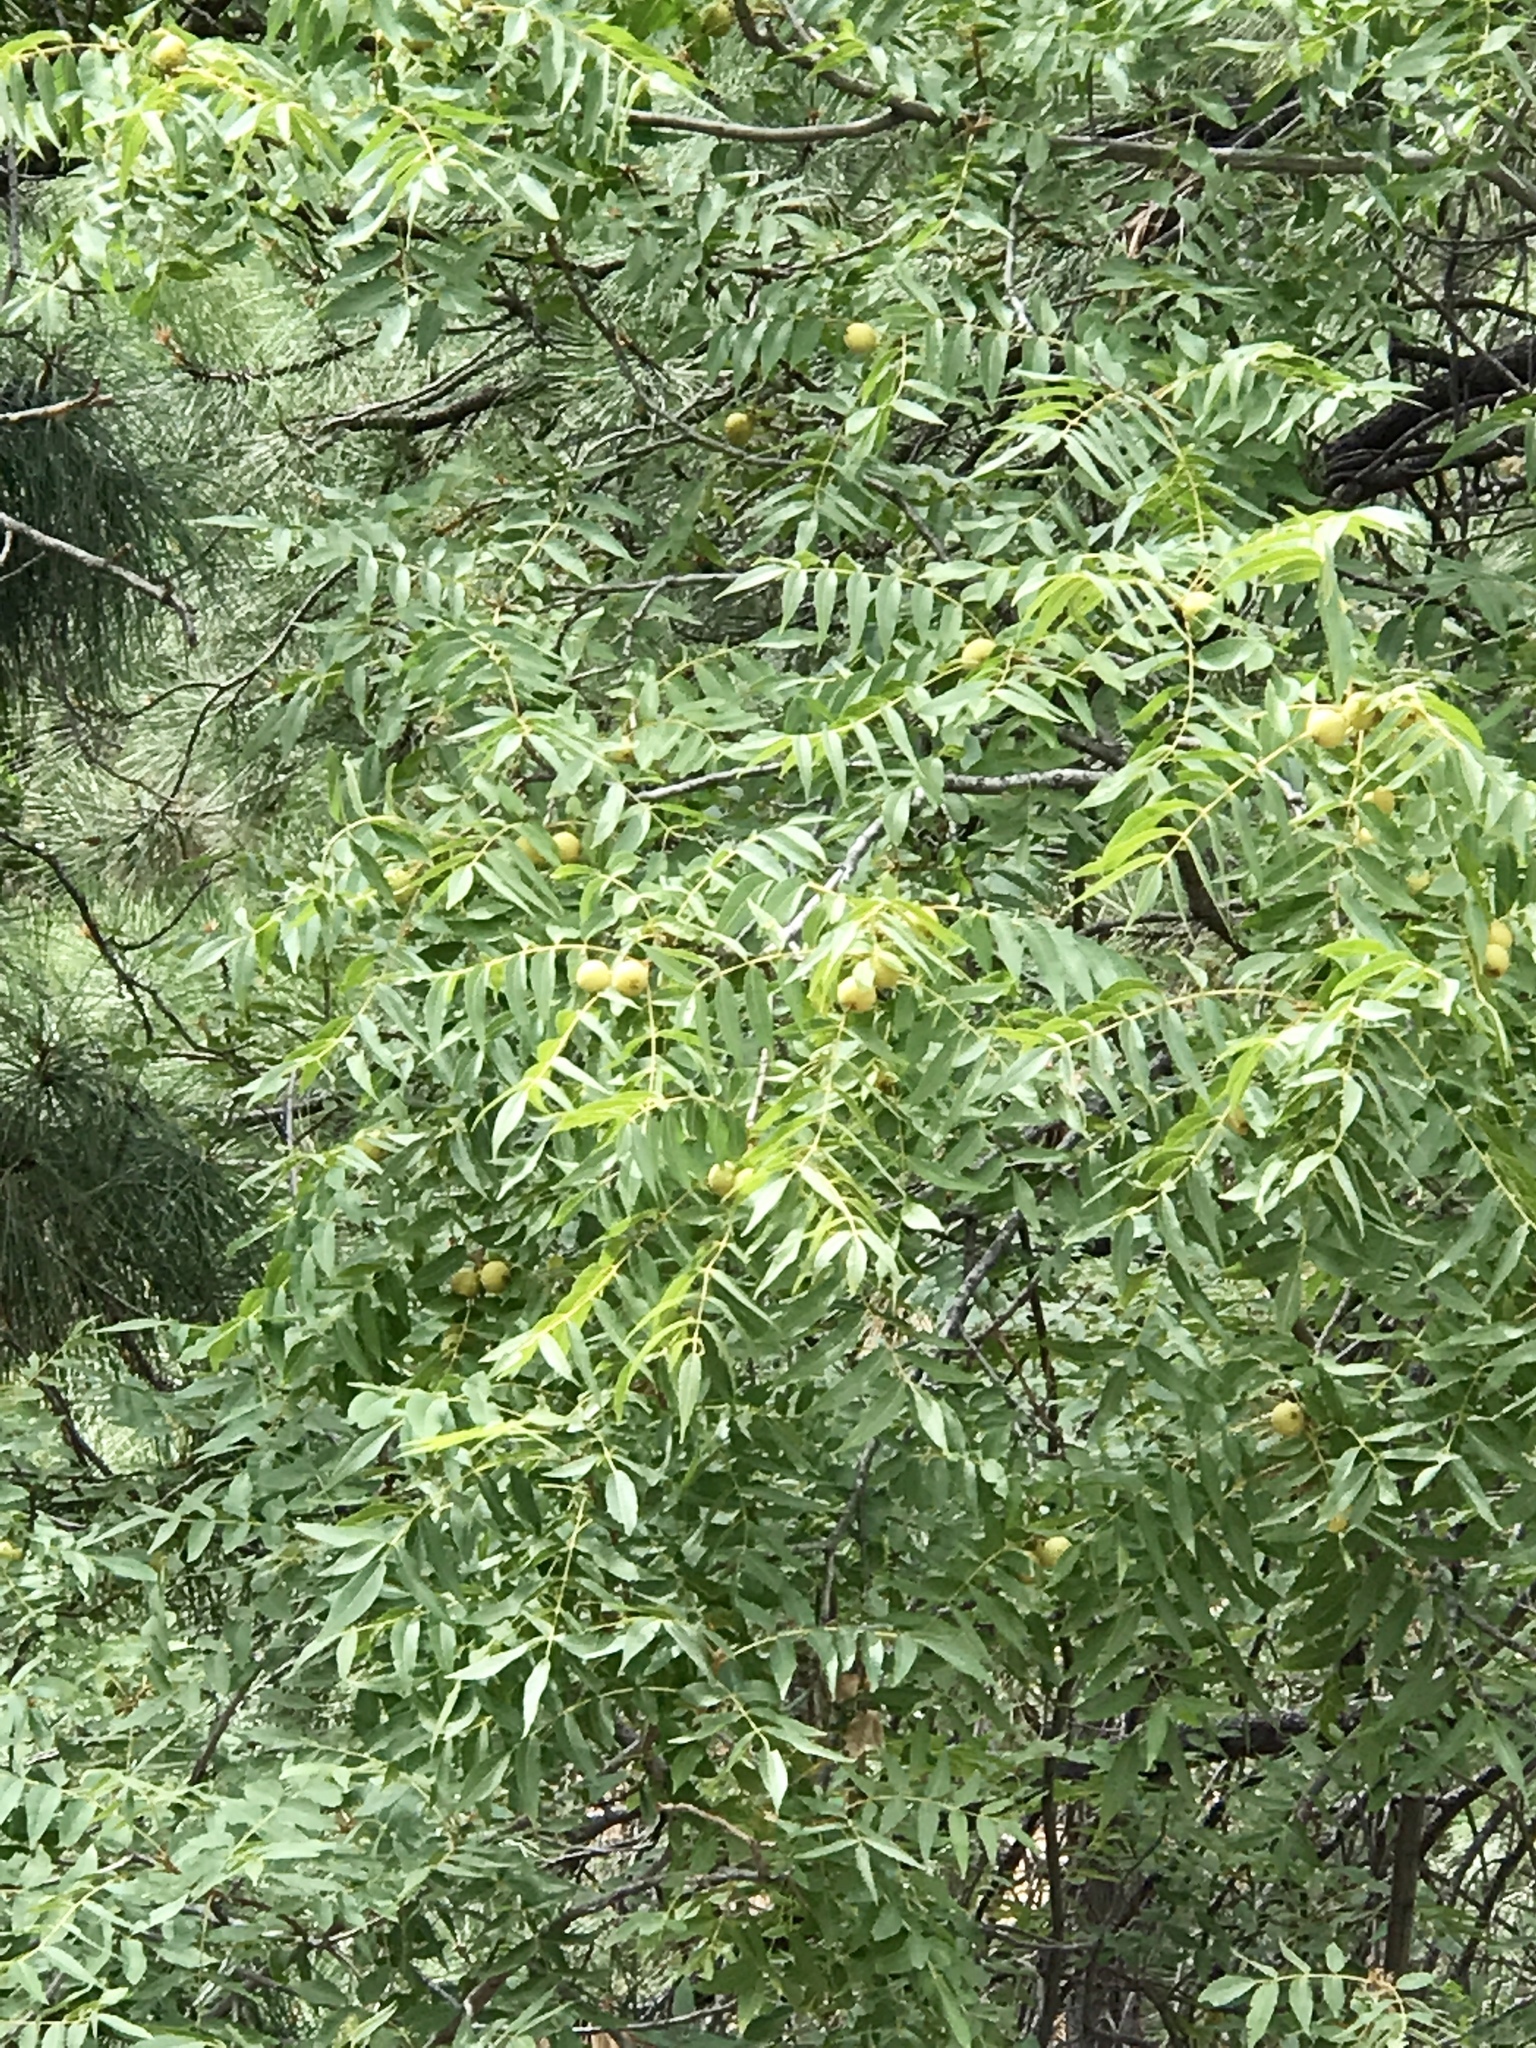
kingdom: Plantae
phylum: Tracheophyta
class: Magnoliopsida
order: Fagales
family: Juglandaceae
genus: Juglans
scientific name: Juglans major
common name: Arizona walnut
